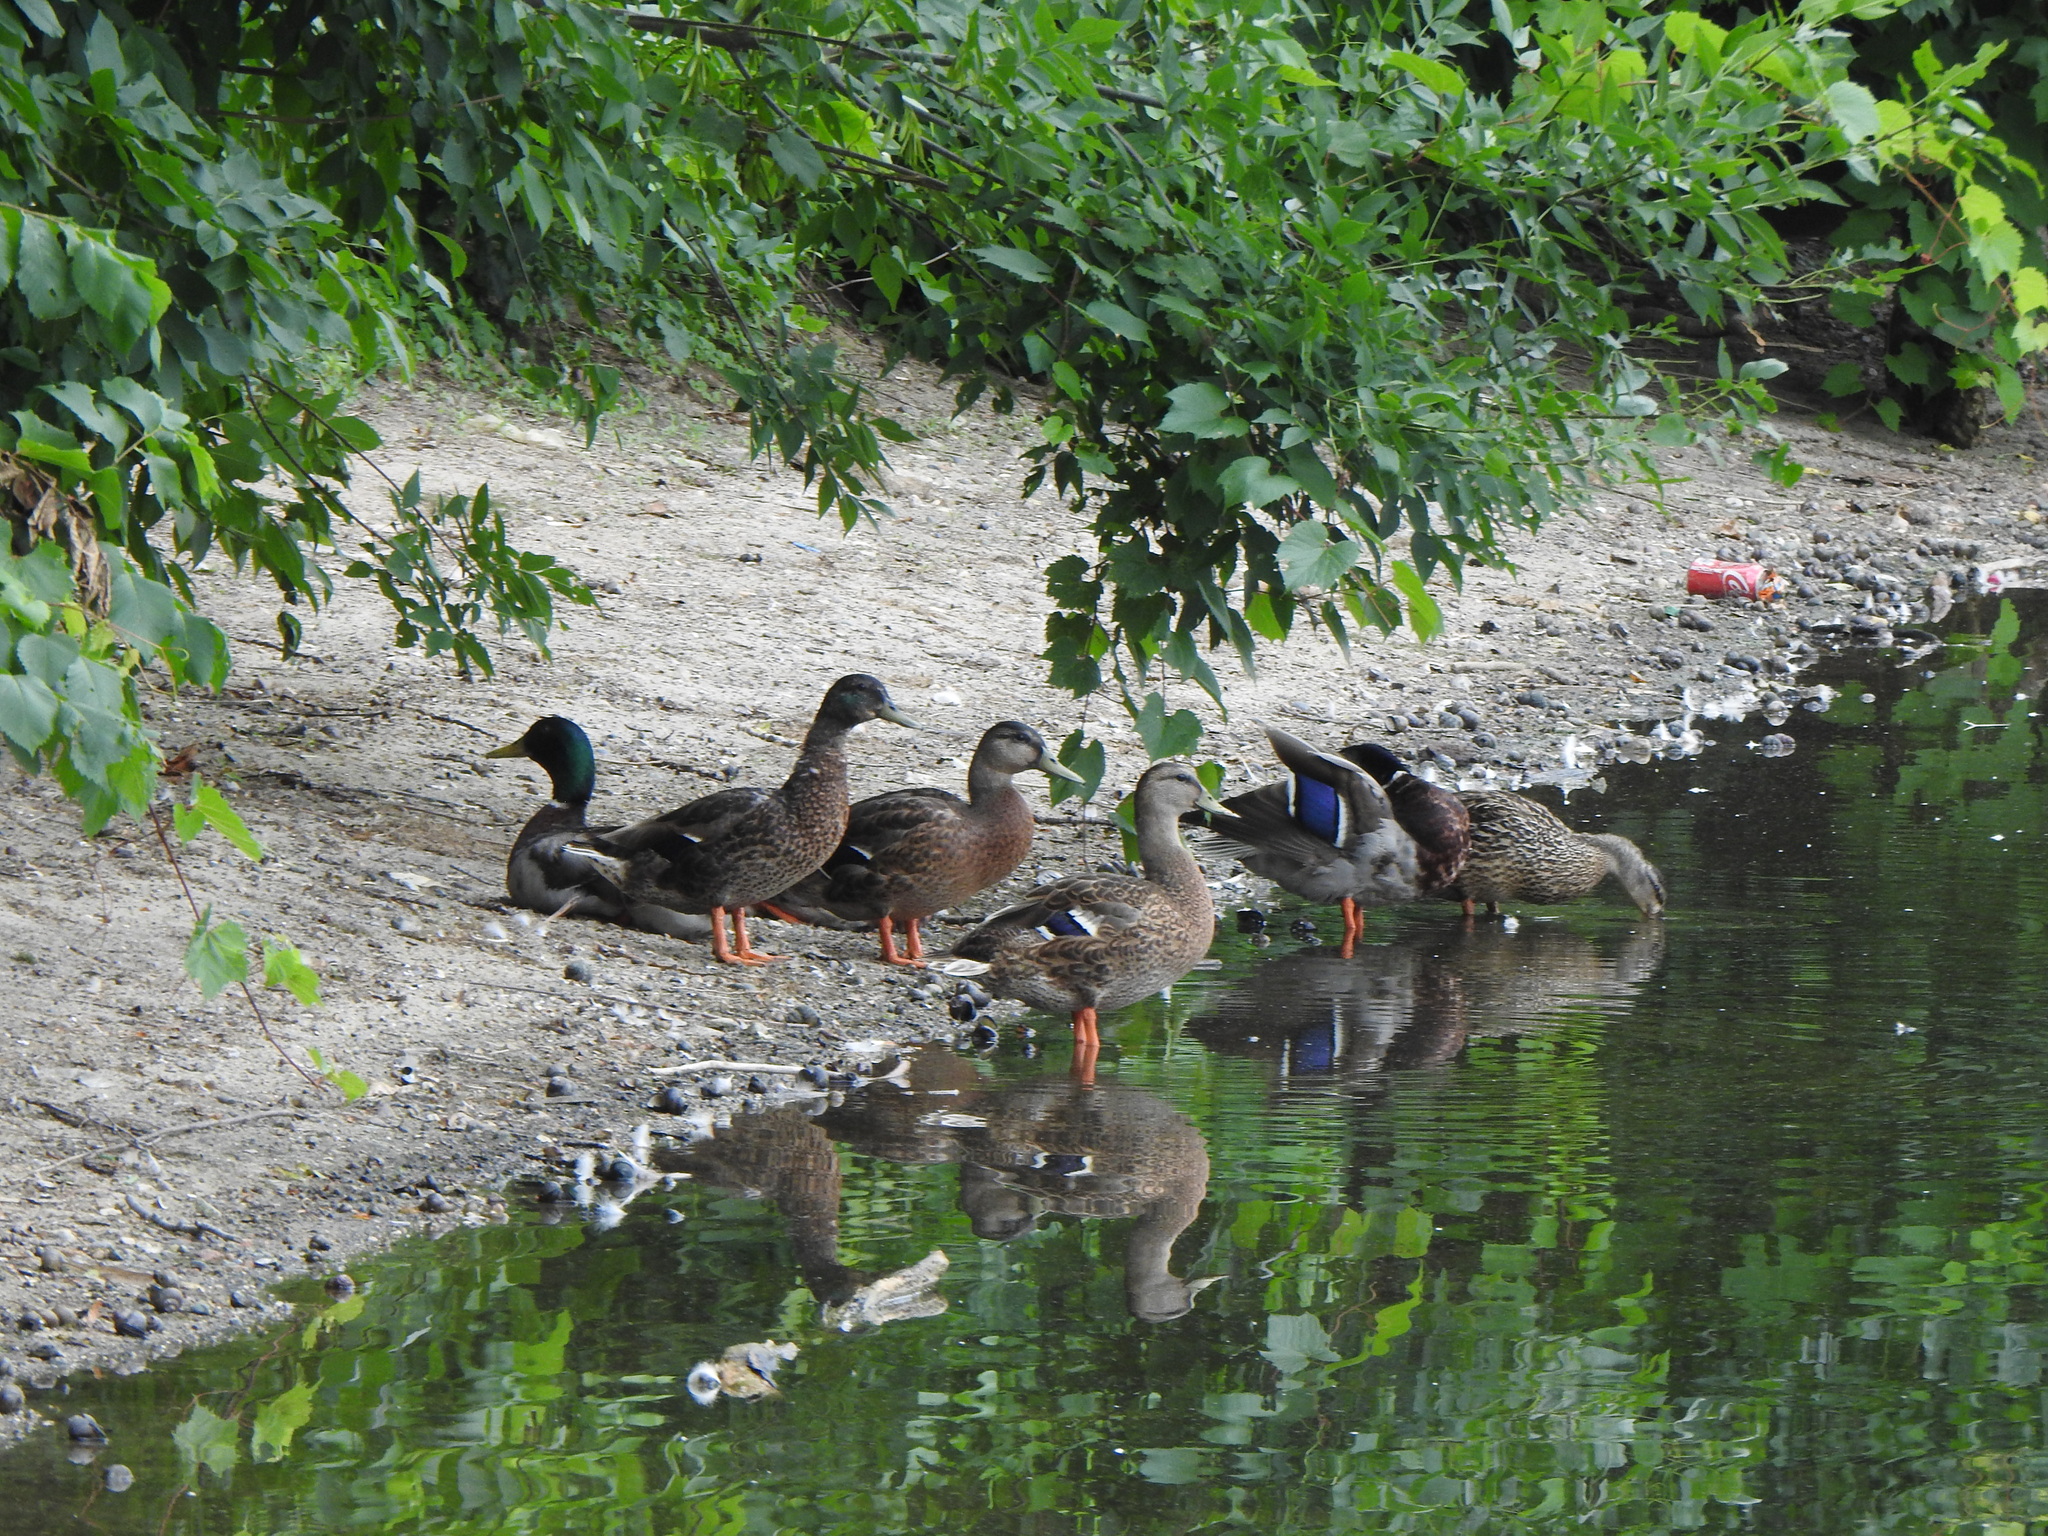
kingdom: Animalia
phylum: Chordata
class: Aves
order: Anseriformes
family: Anatidae
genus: Anas
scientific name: Anas platyrhynchos
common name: Mallard
